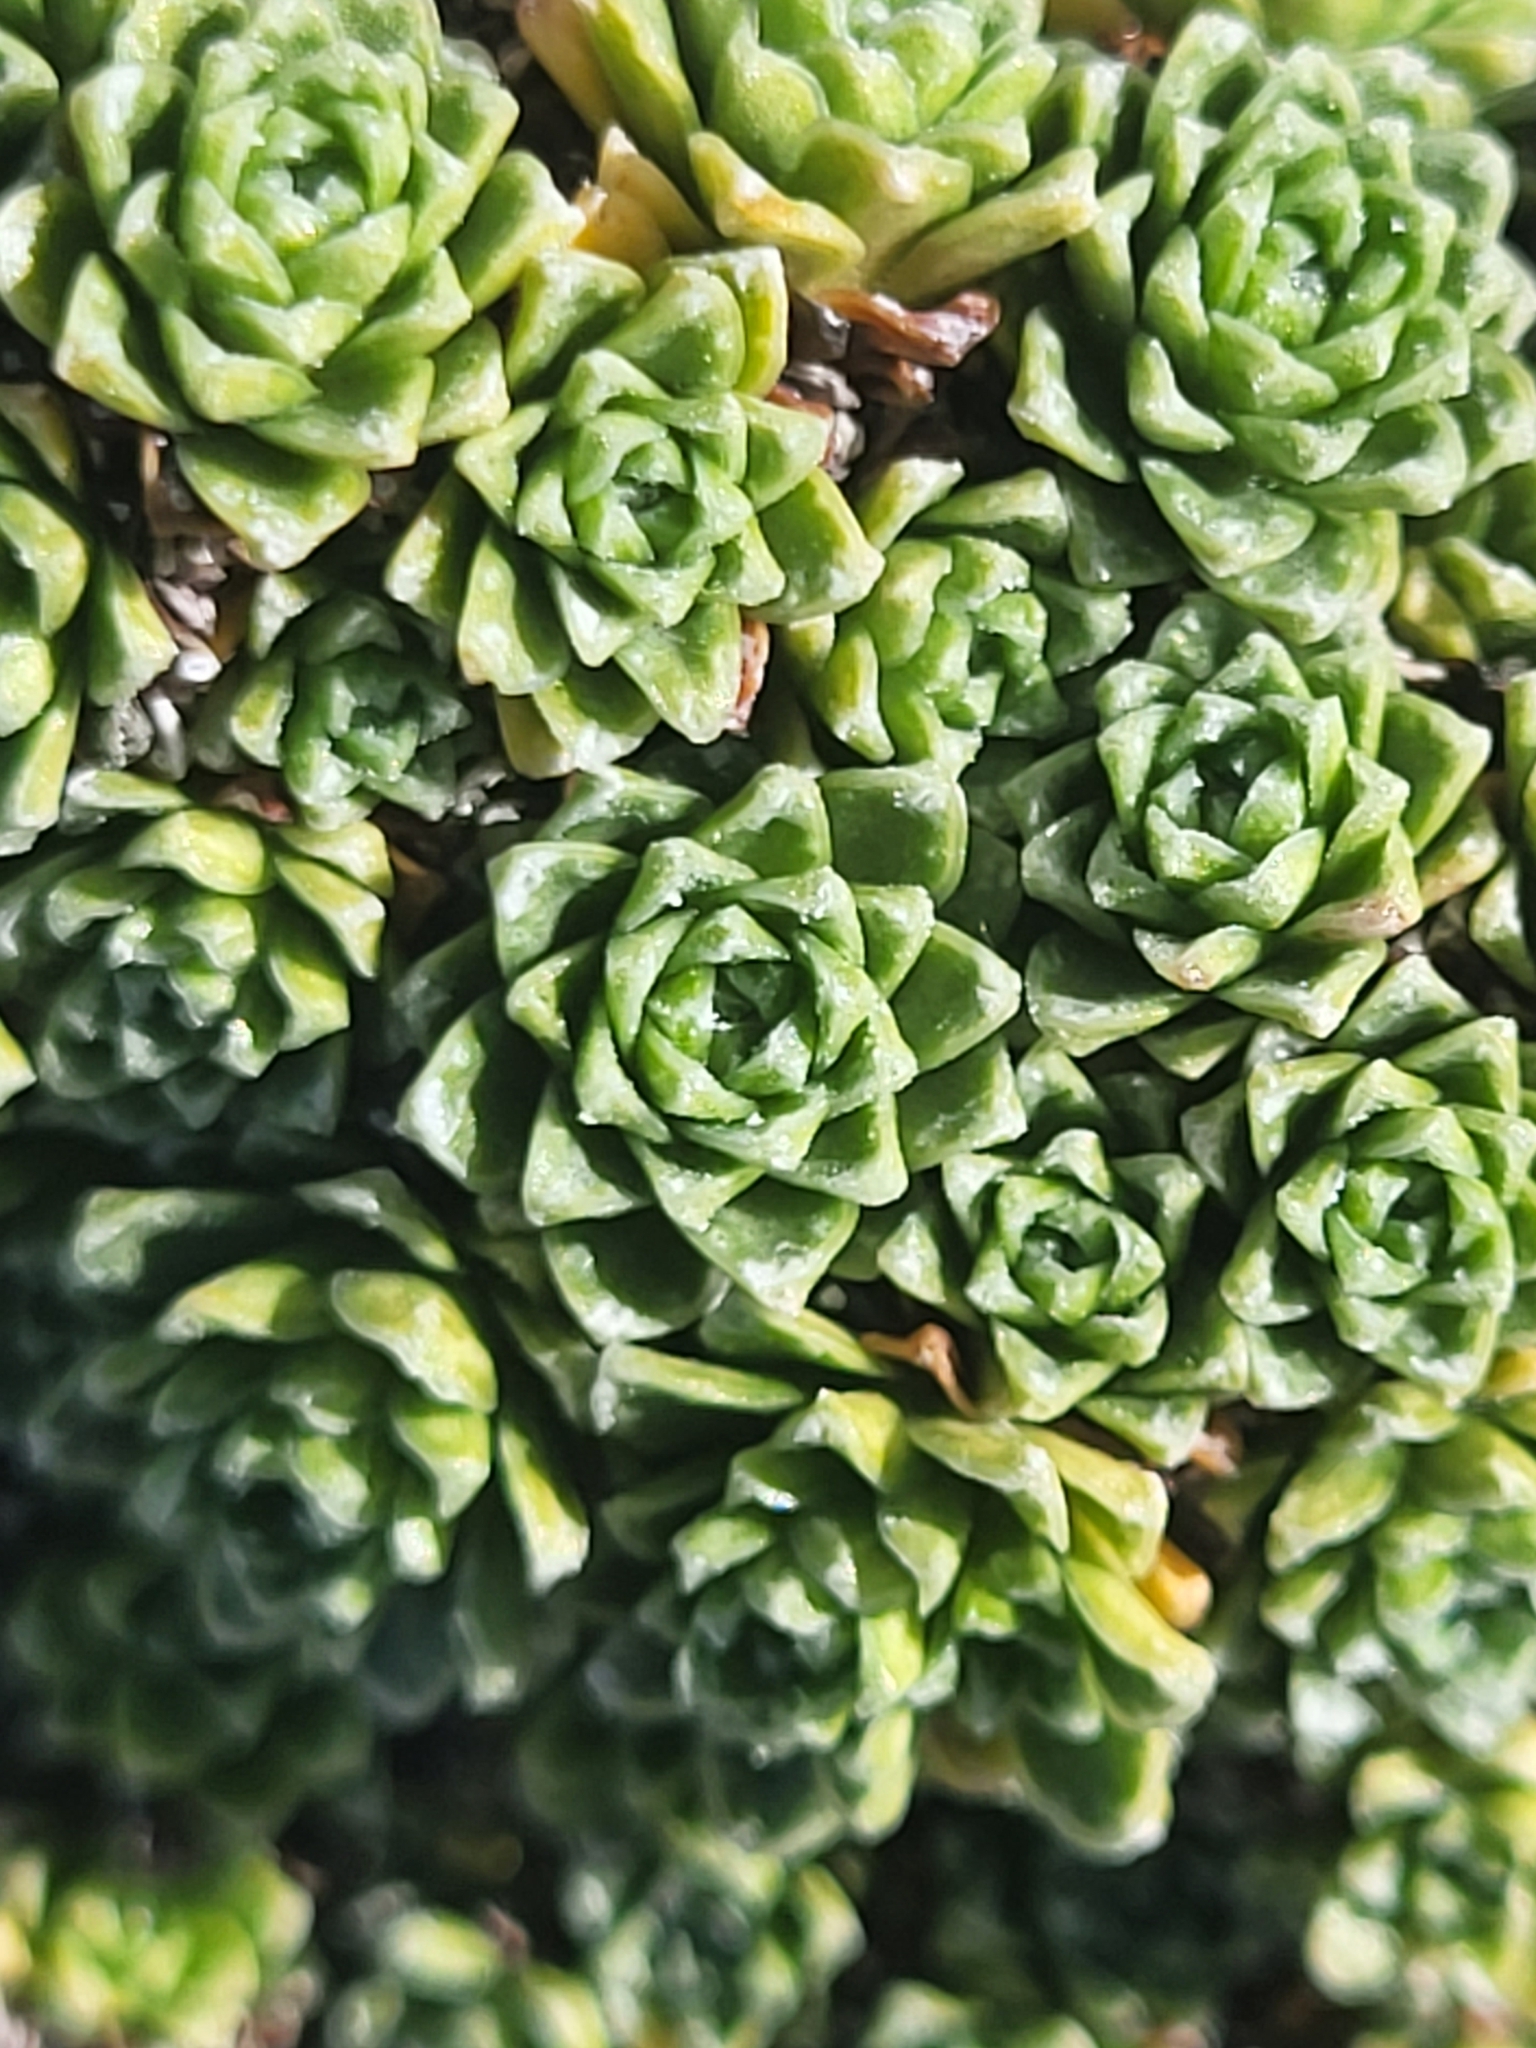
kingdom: Plantae
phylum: Tracheophyta
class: Magnoliopsida
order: Saxifragales
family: Saxifragaceae
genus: Saxifraga
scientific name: Saxifraga marginata
